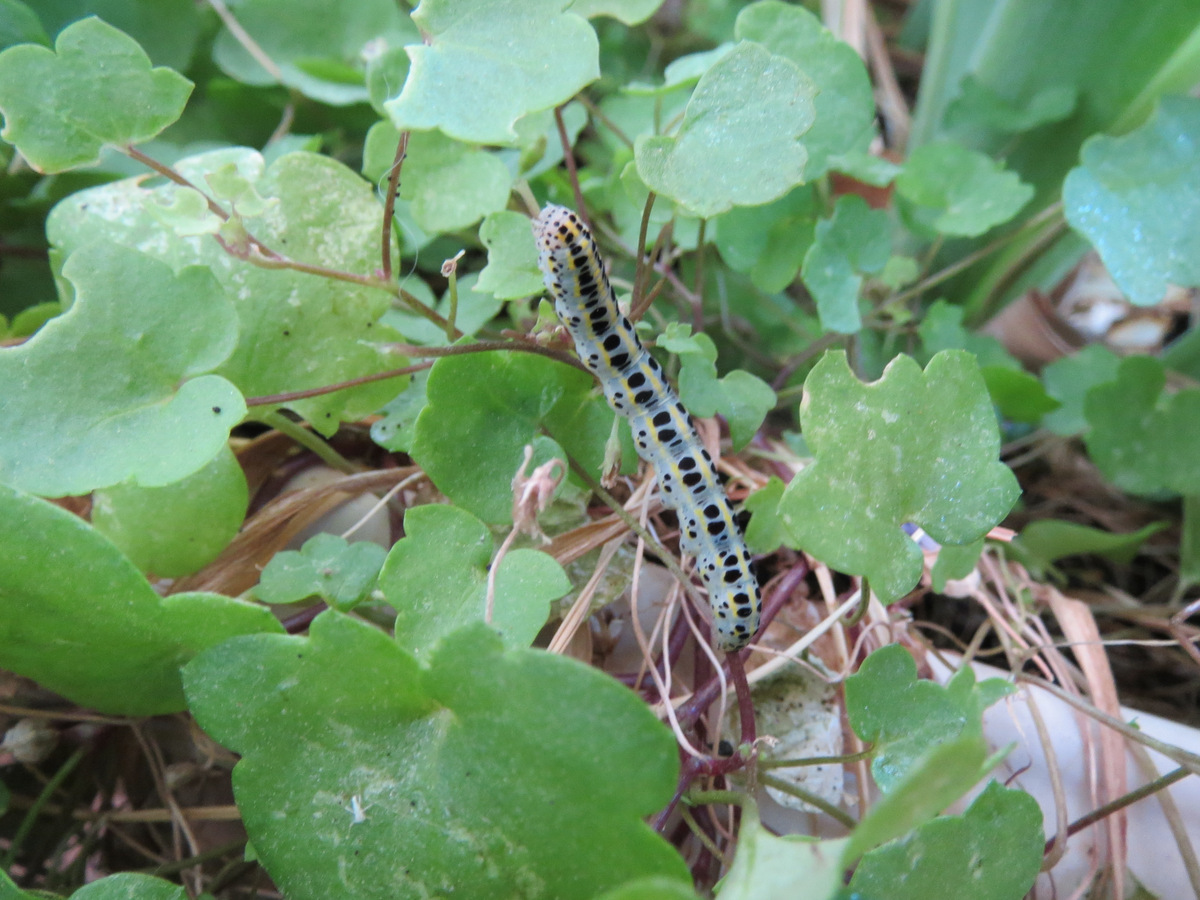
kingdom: Animalia
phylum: Arthropoda
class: Insecta
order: Lepidoptera
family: Noctuidae
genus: Calophasia
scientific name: Calophasia lunula
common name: Toadflax brocade
